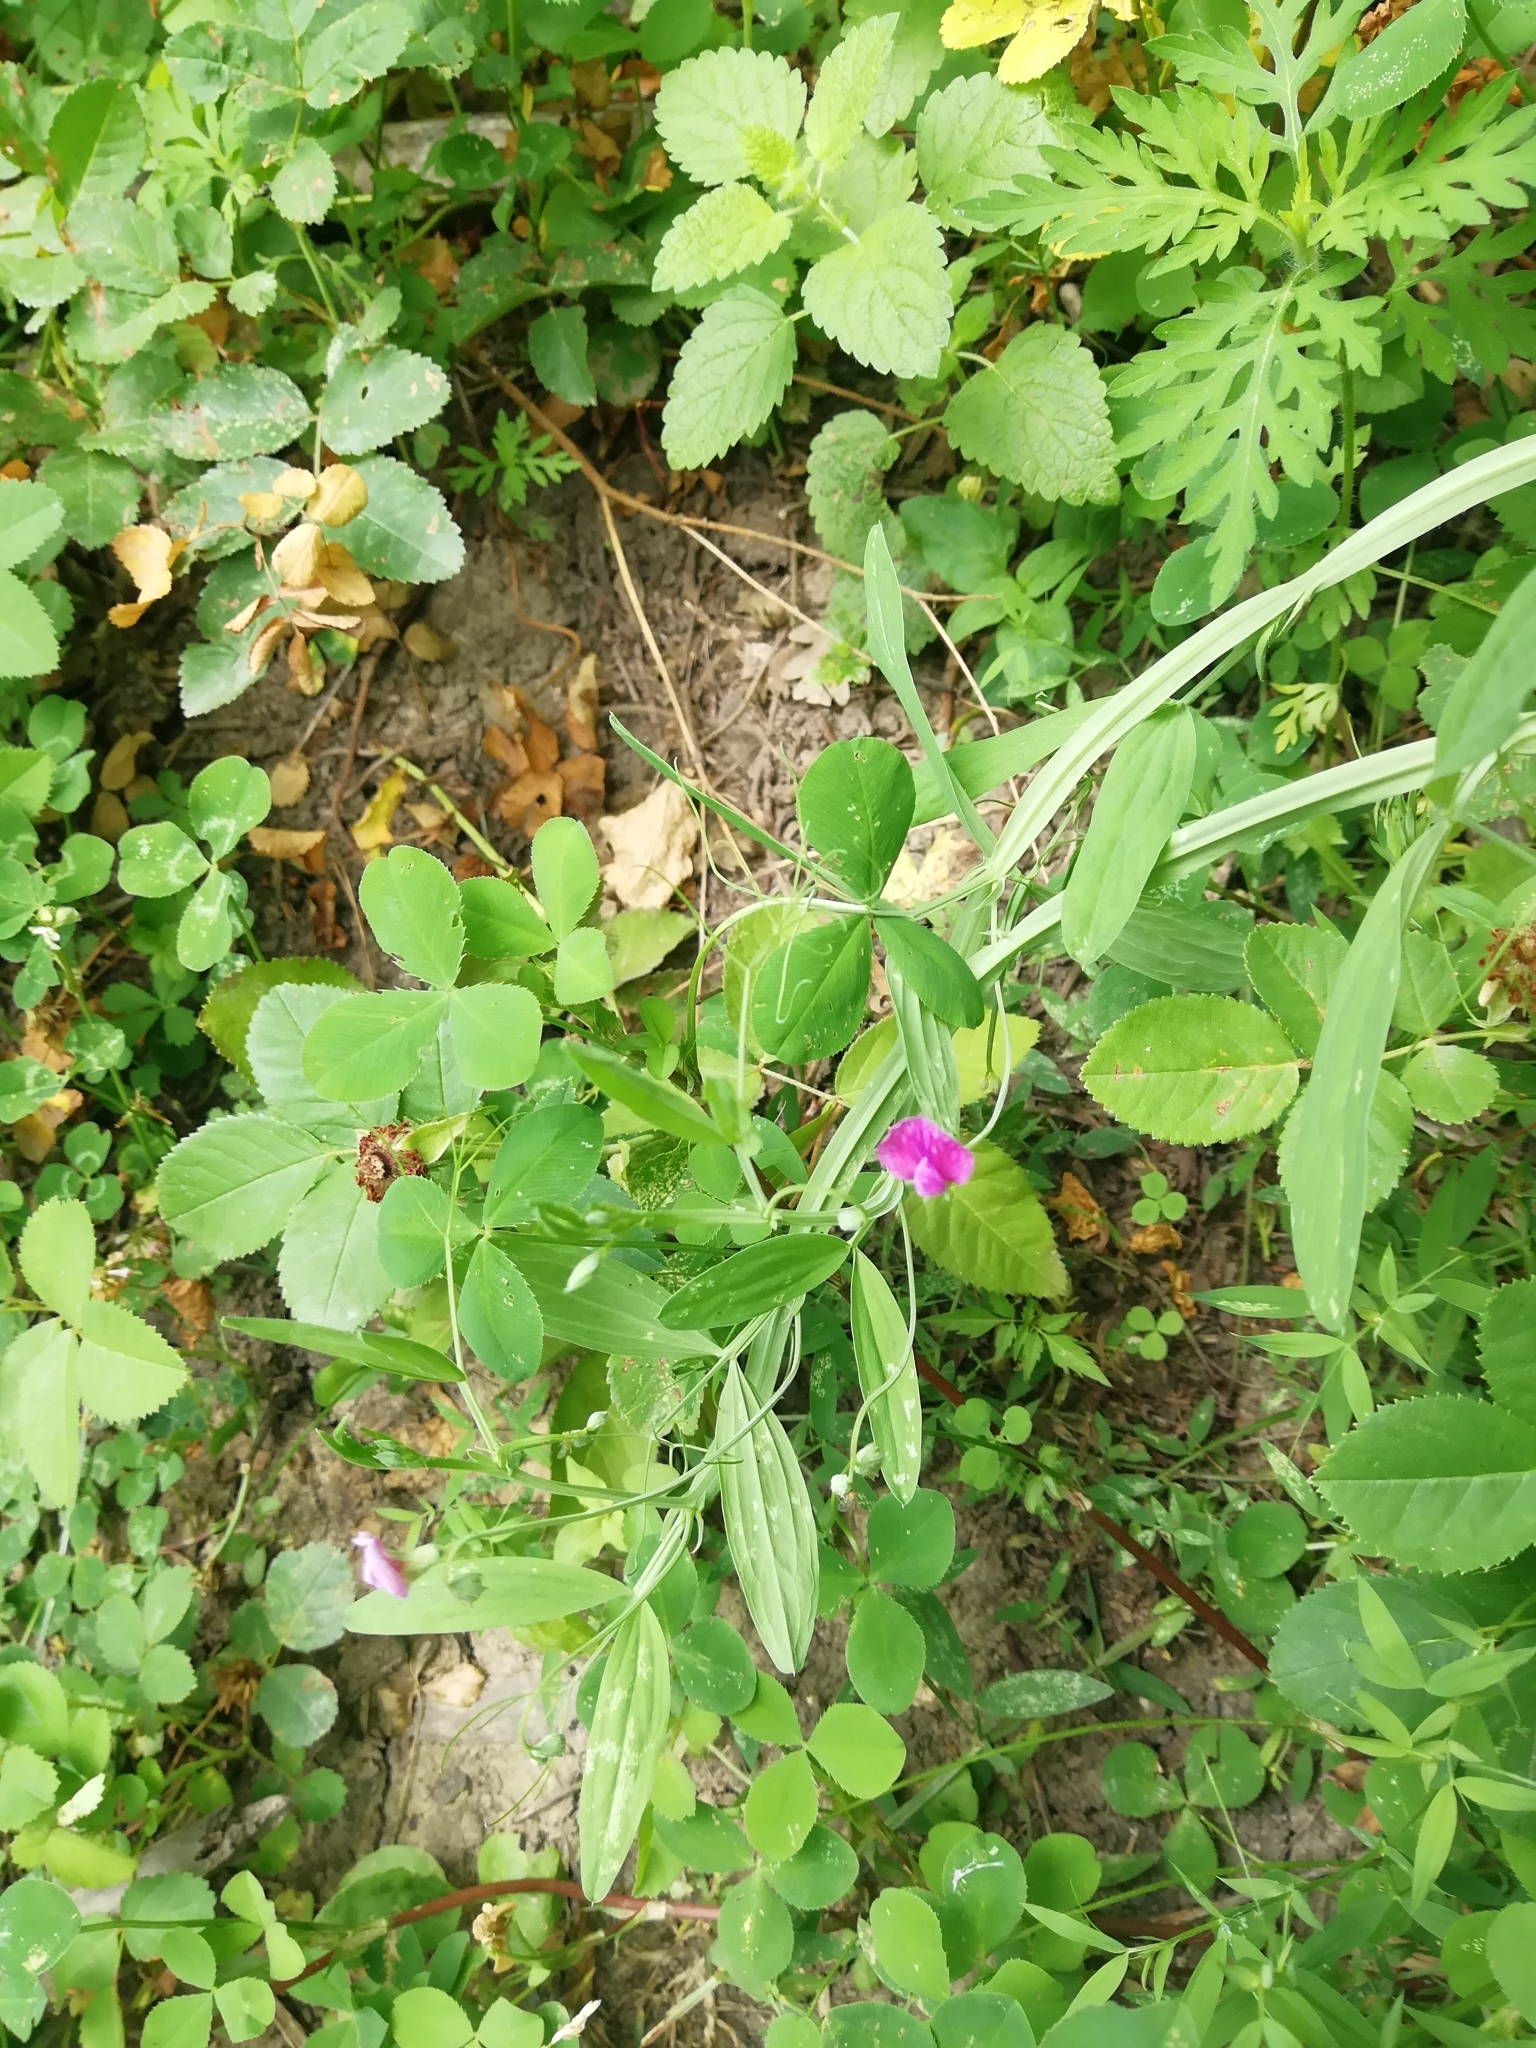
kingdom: Plantae
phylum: Tracheophyta
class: Magnoliopsida
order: Fabales
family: Fabaceae
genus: Lathyrus
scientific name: Lathyrus hirsutus
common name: Hairy vetchling
